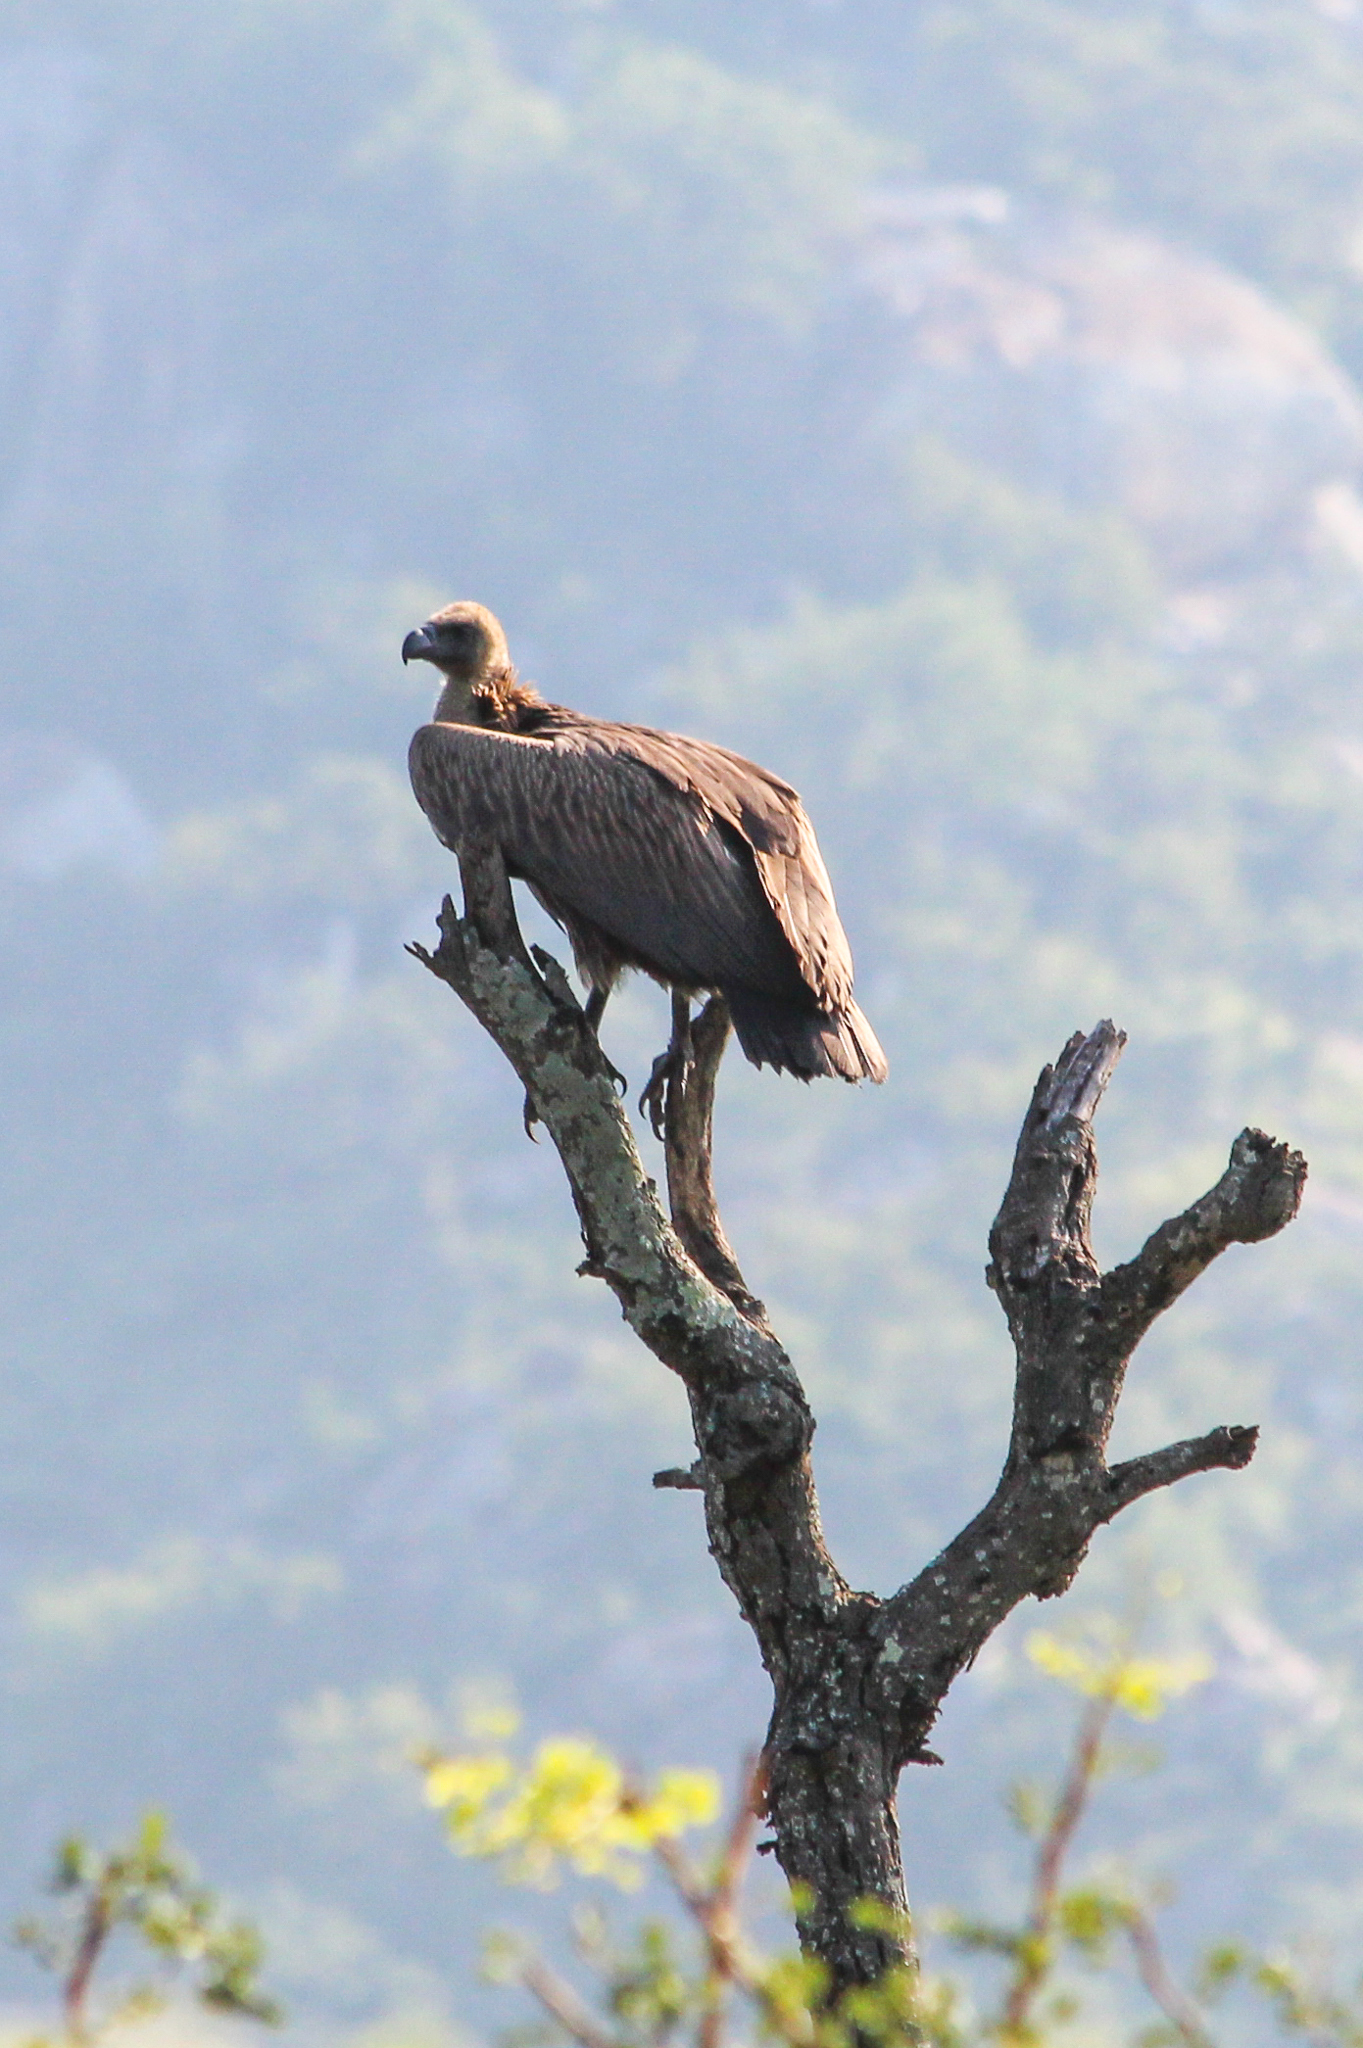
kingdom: Animalia
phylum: Chordata
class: Aves
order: Accipitriformes
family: Accipitridae
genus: Gyps
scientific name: Gyps africanus
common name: White-backed vulture
